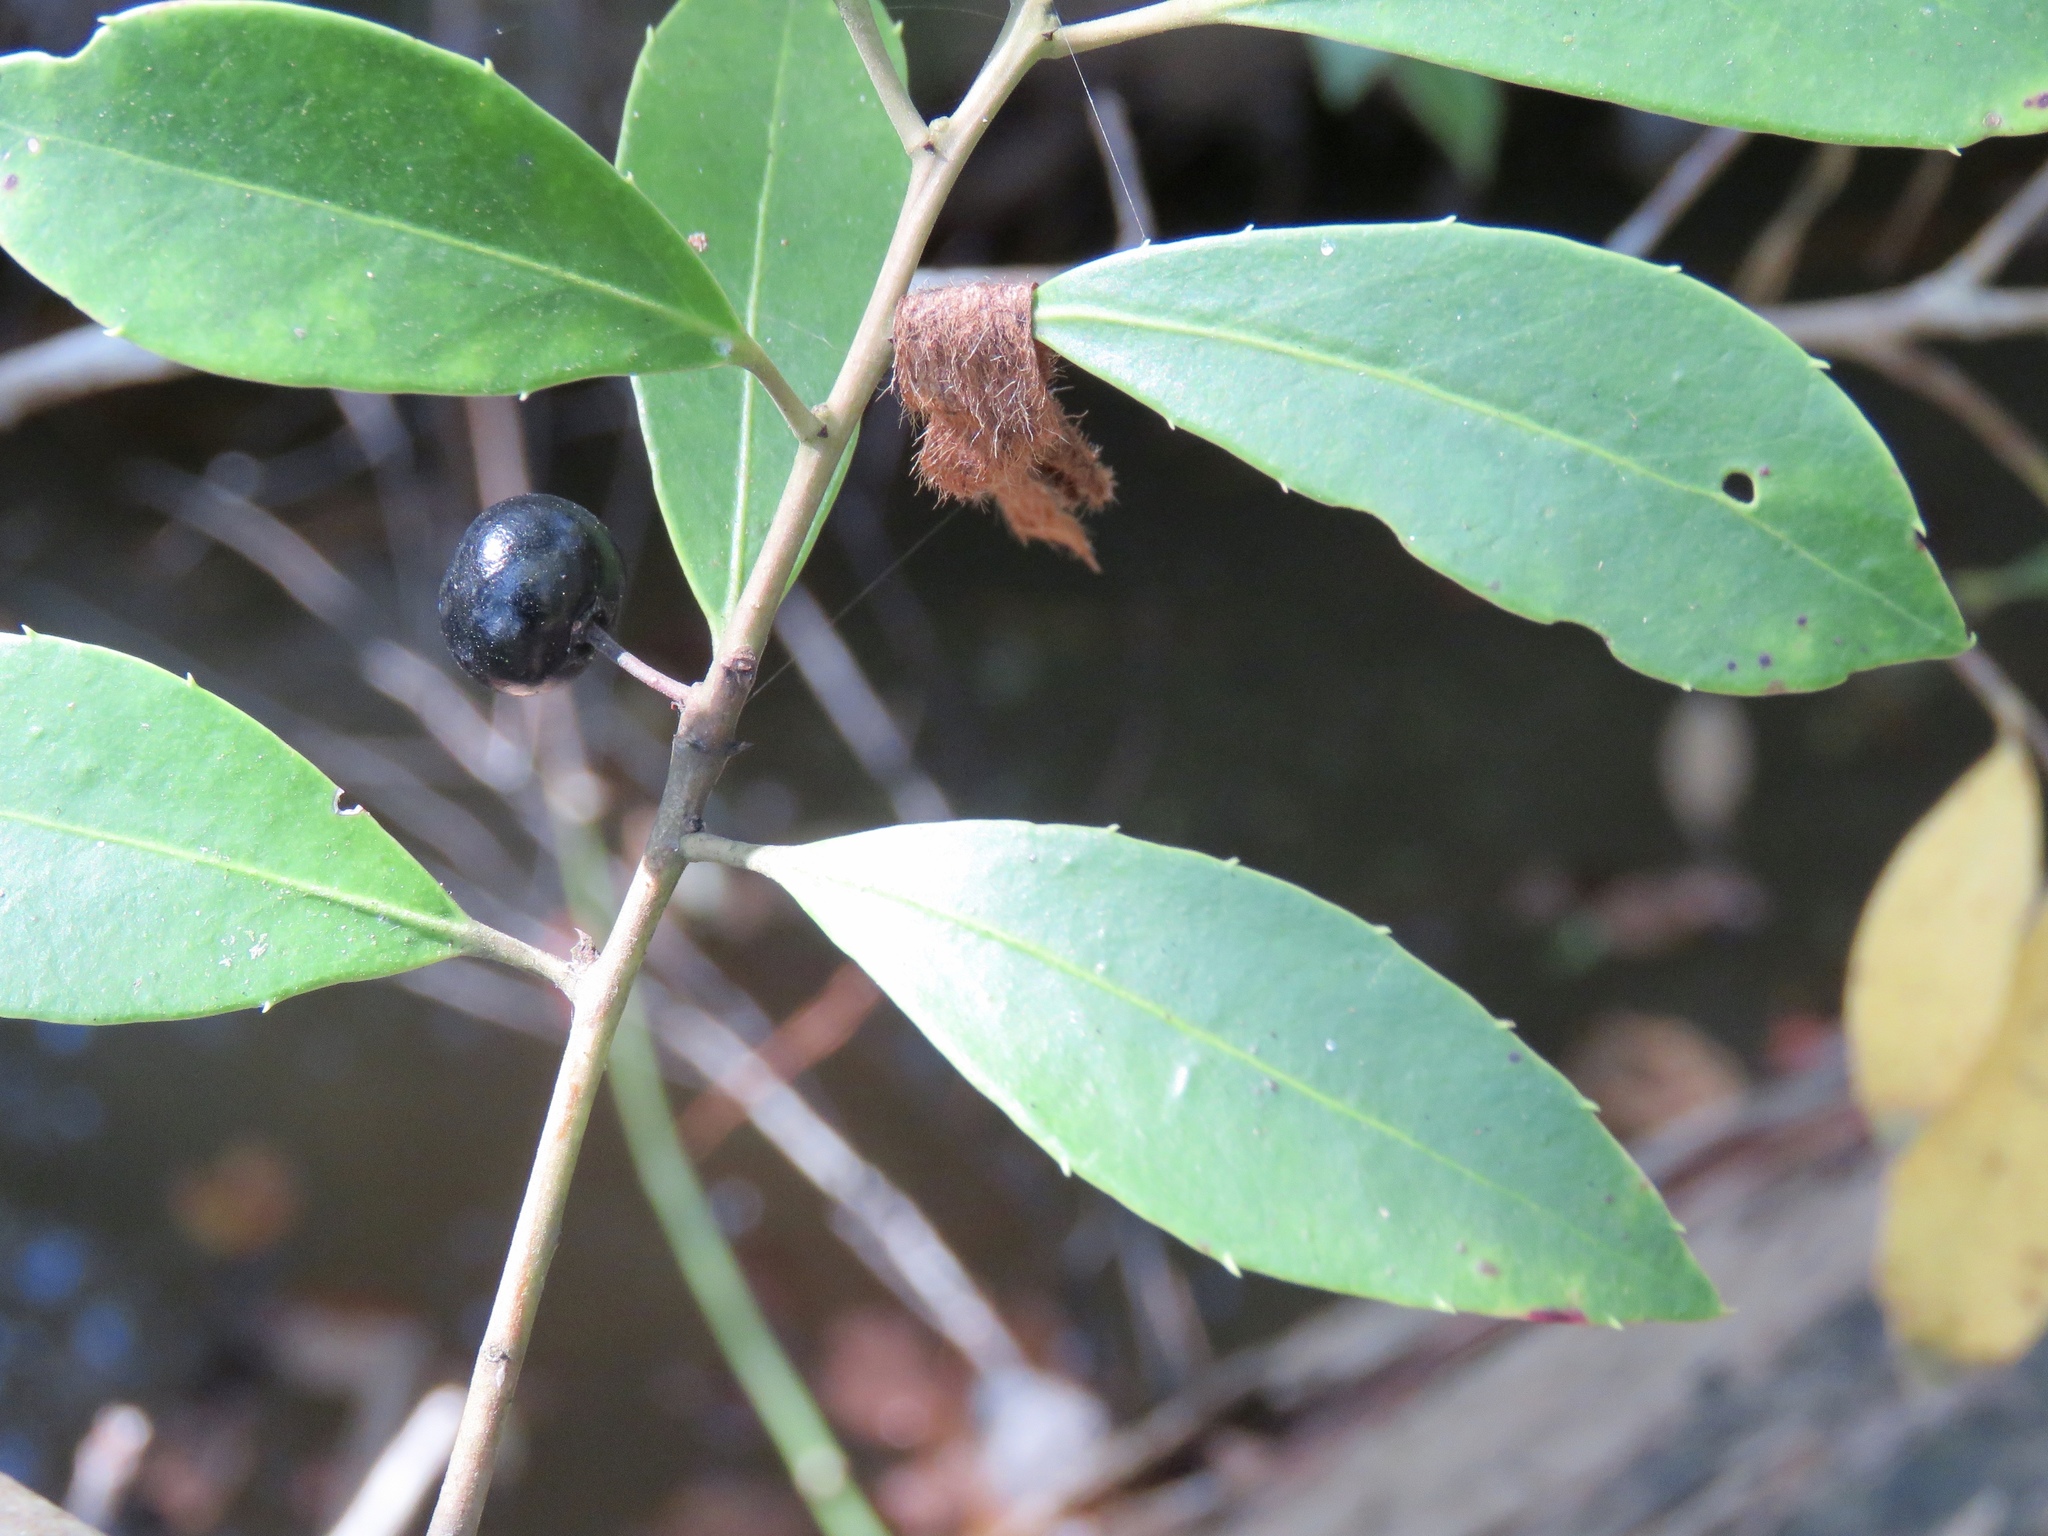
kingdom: Plantae
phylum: Tracheophyta
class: Magnoliopsida
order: Aquifoliales
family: Aquifoliaceae
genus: Ilex
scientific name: Ilex coriacea
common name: Sweet gallberry
